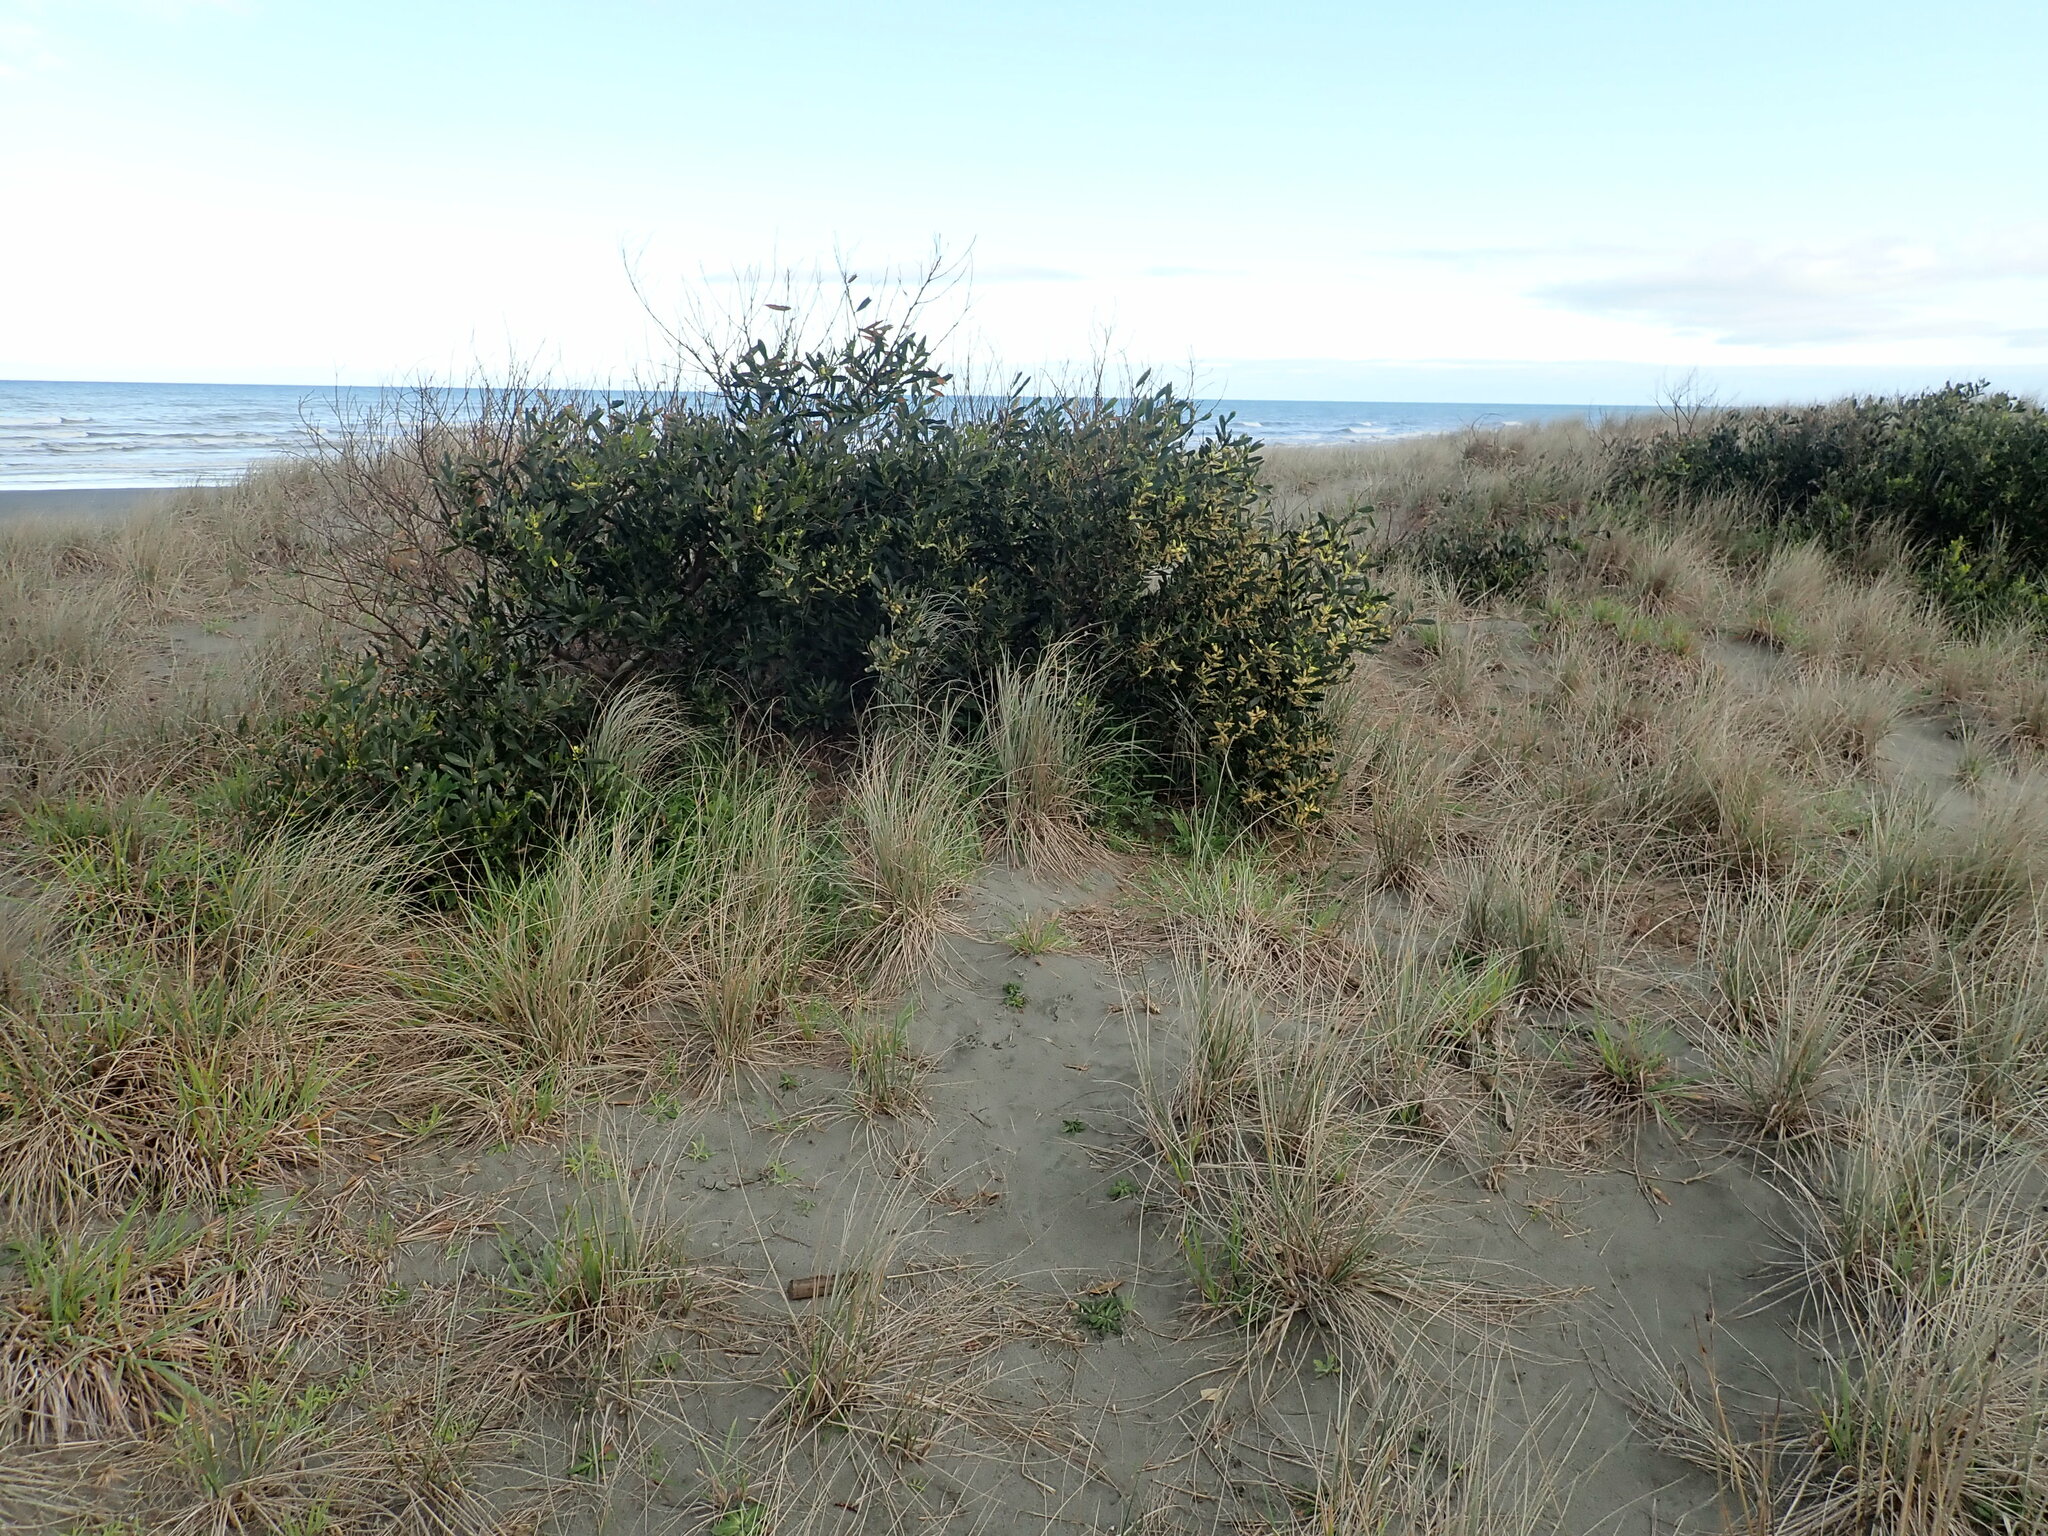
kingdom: Plantae
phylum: Tracheophyta
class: Magnoliopsida
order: Fabales
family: Fabaceae
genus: Acacia
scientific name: Acacia longifolia
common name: Sydney golden wattle
